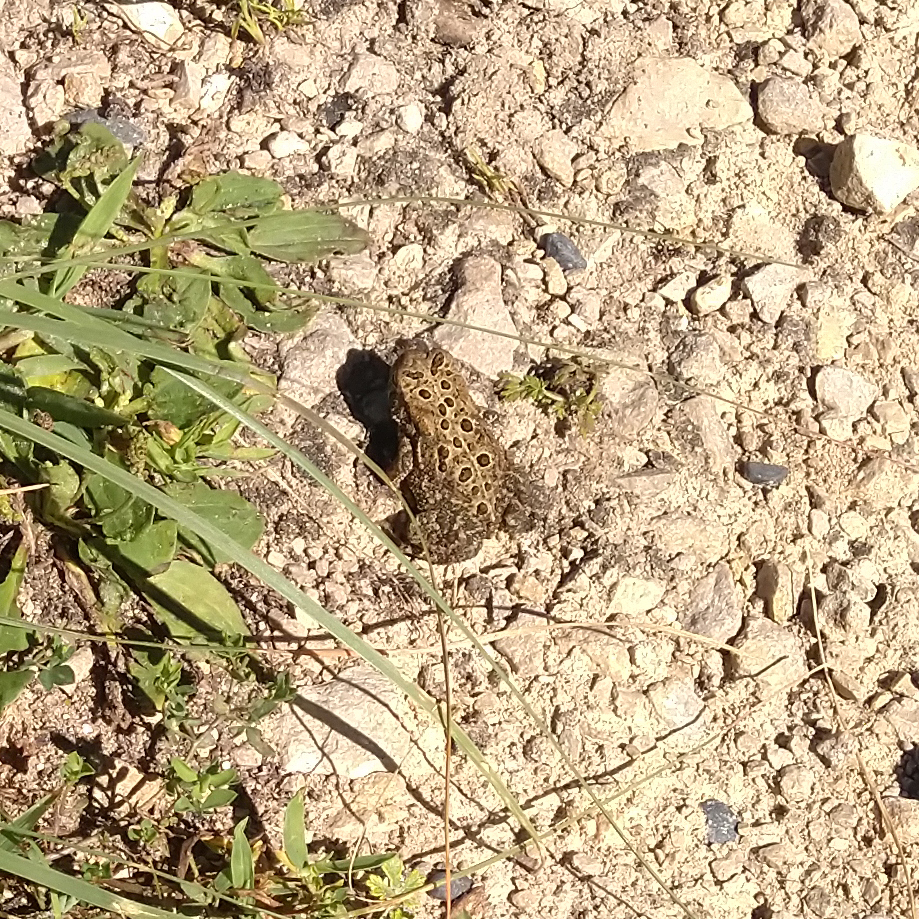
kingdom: Animalia
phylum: Chordata
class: Amphibia
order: Anura
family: Bufonidae
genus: Anaxyrus
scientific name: Anaxyrus americanus
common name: American toad
